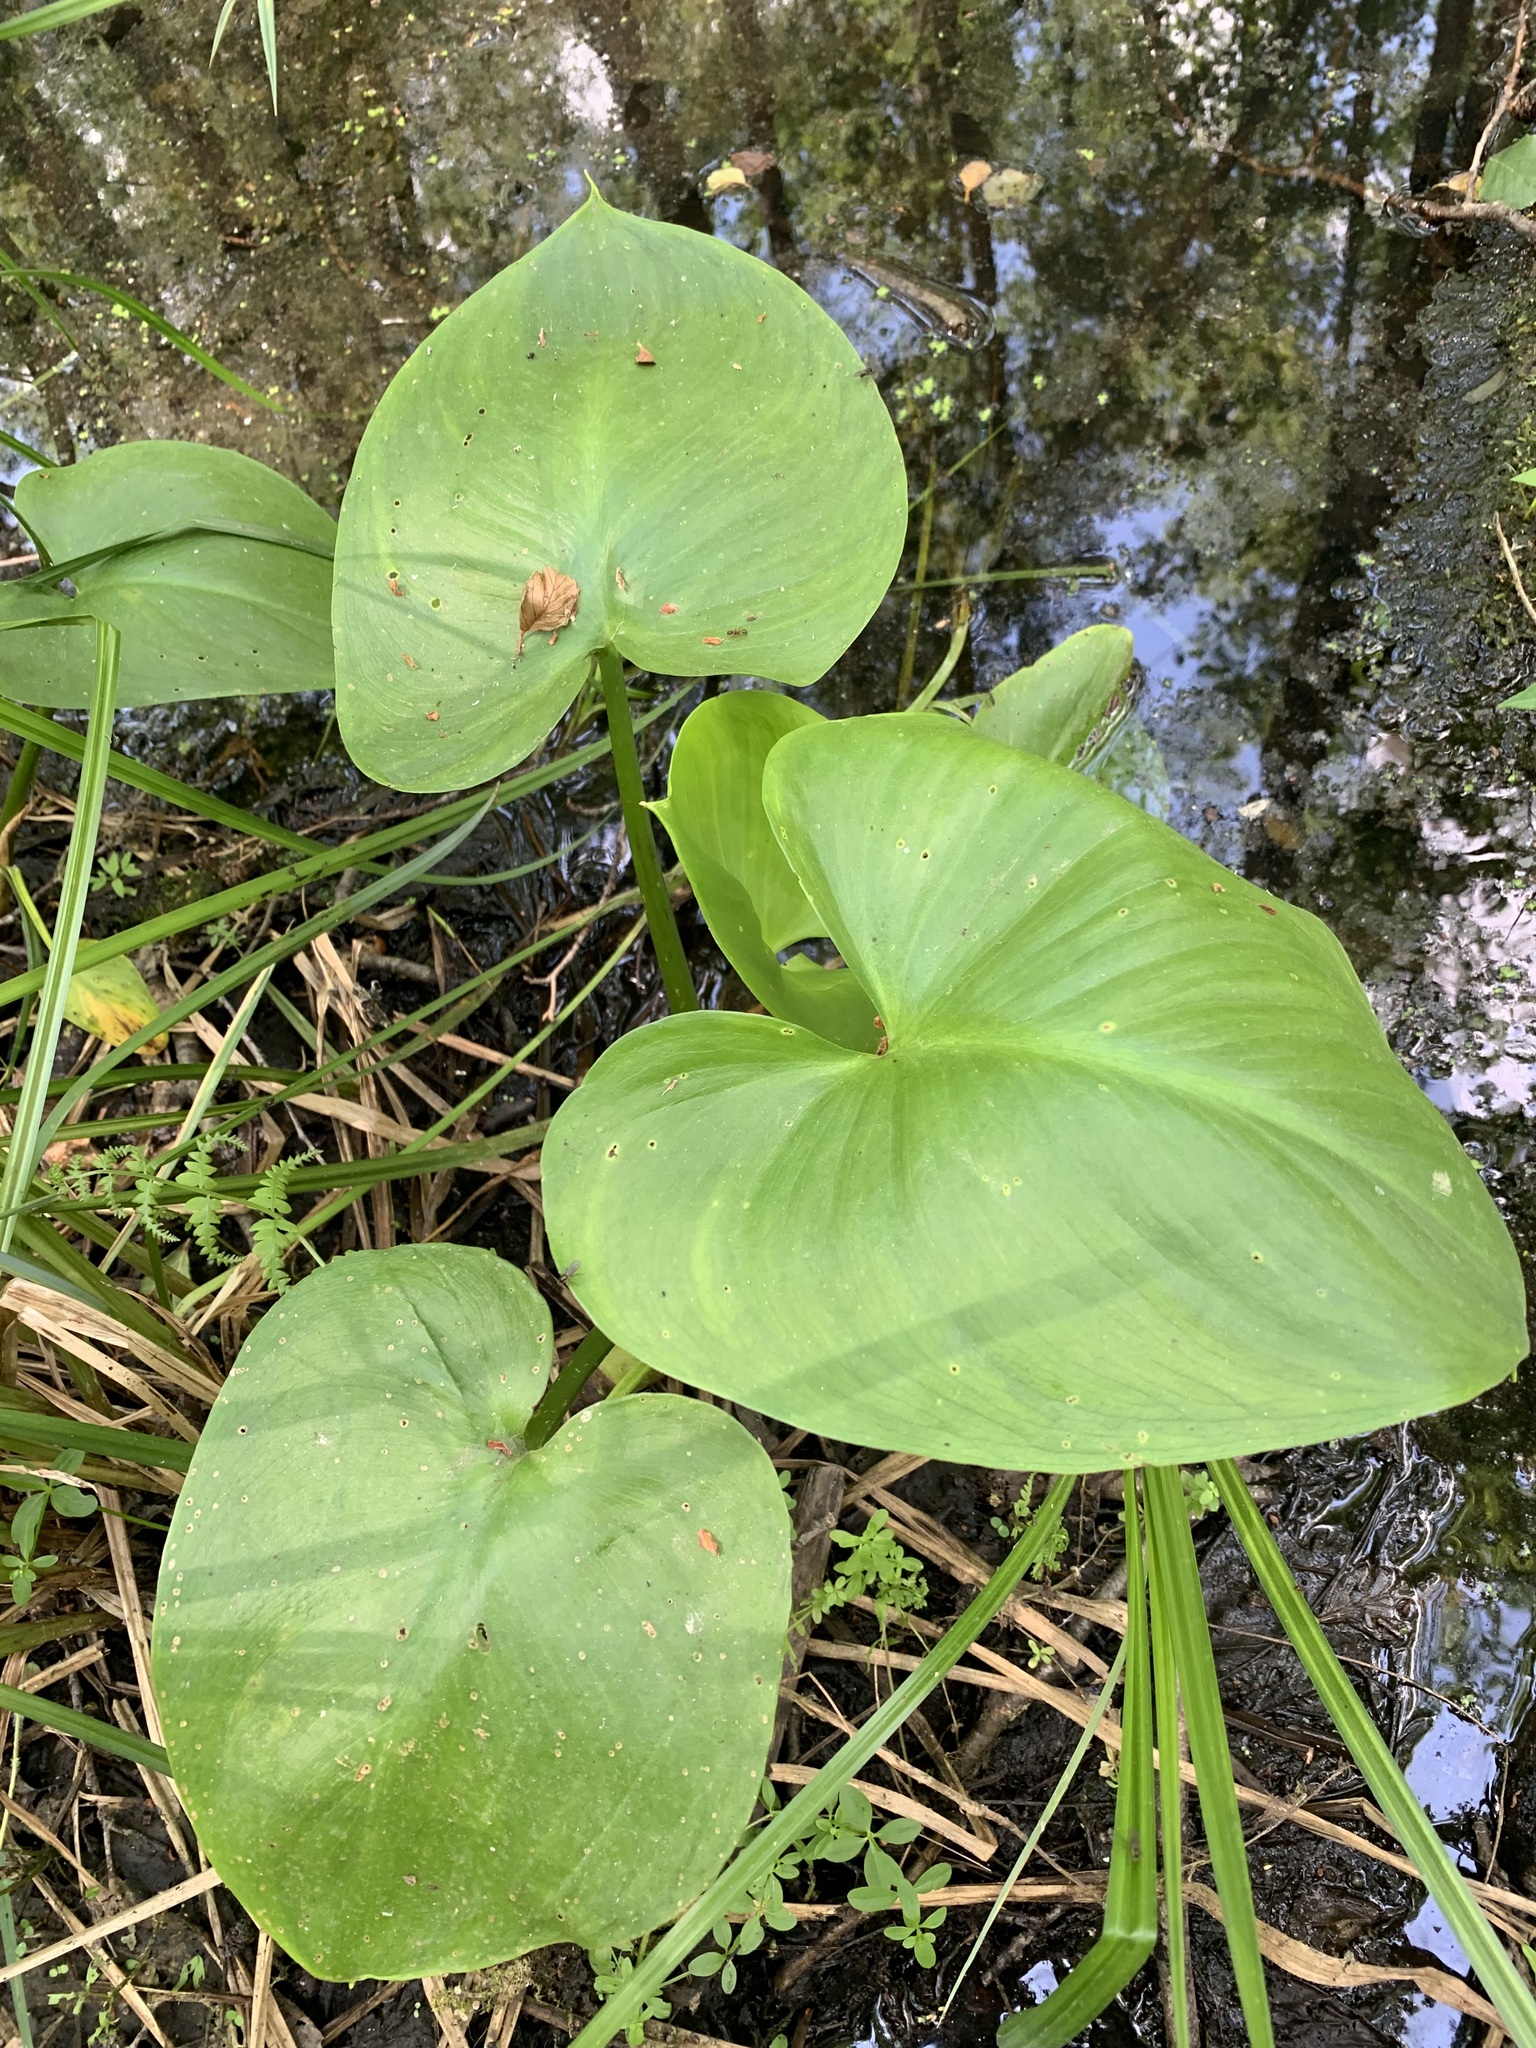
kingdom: Plantae
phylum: Tracheophyta
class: Liliopsida
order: Alismatales
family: Araceae
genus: Calla
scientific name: Calla palustris
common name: Bog arum
